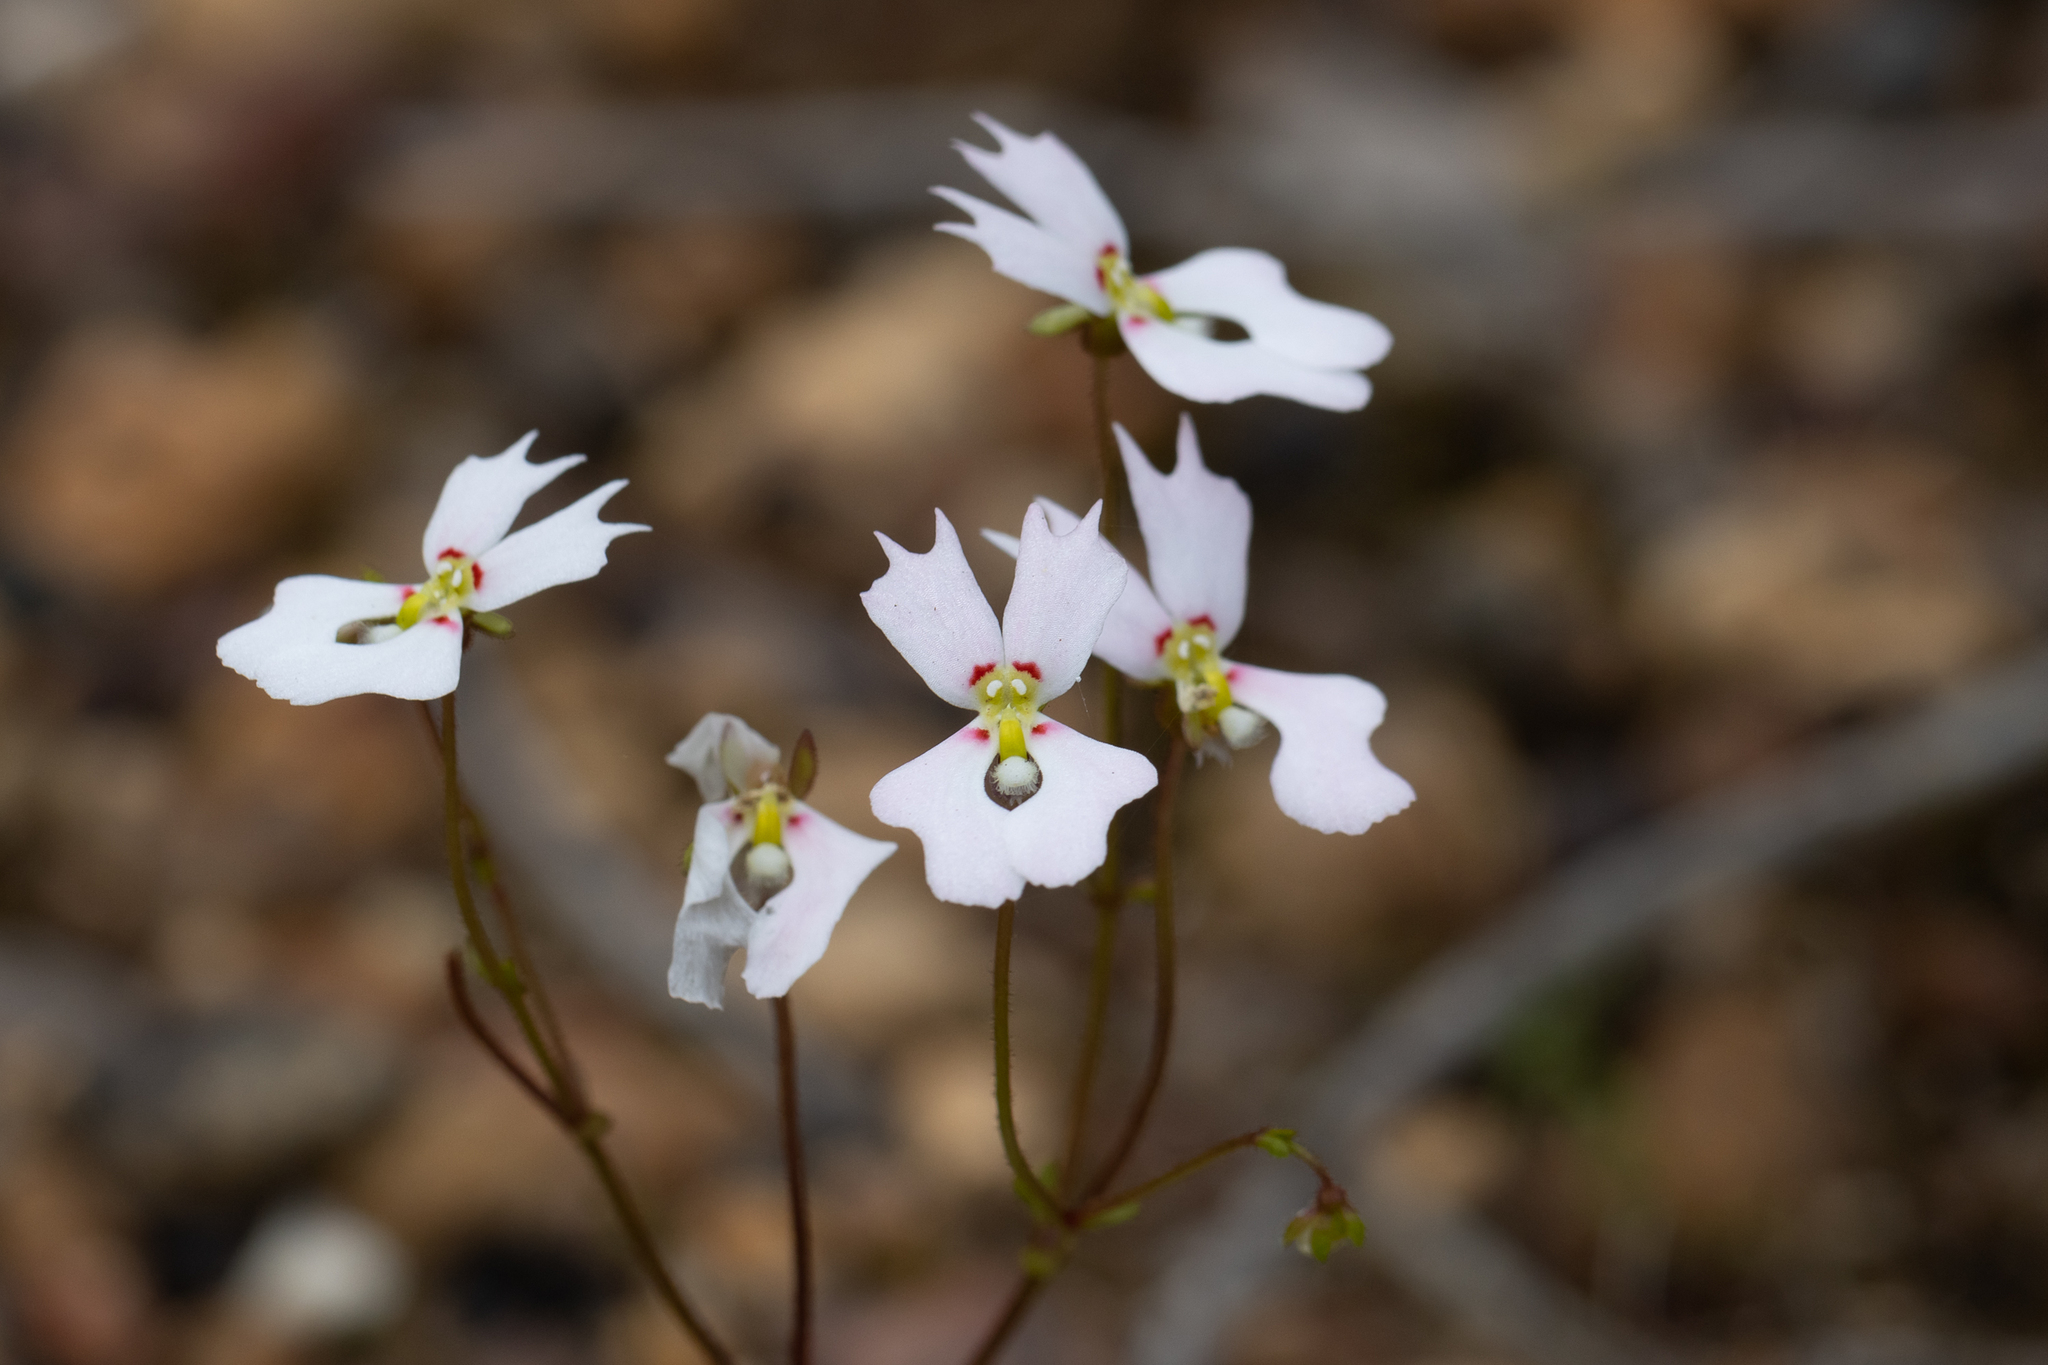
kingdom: Plantae
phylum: Tracheophyta
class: Magnoliopsida
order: Asterales
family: Stylidiaceae
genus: Stylidium
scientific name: Stylidium androsaceum
